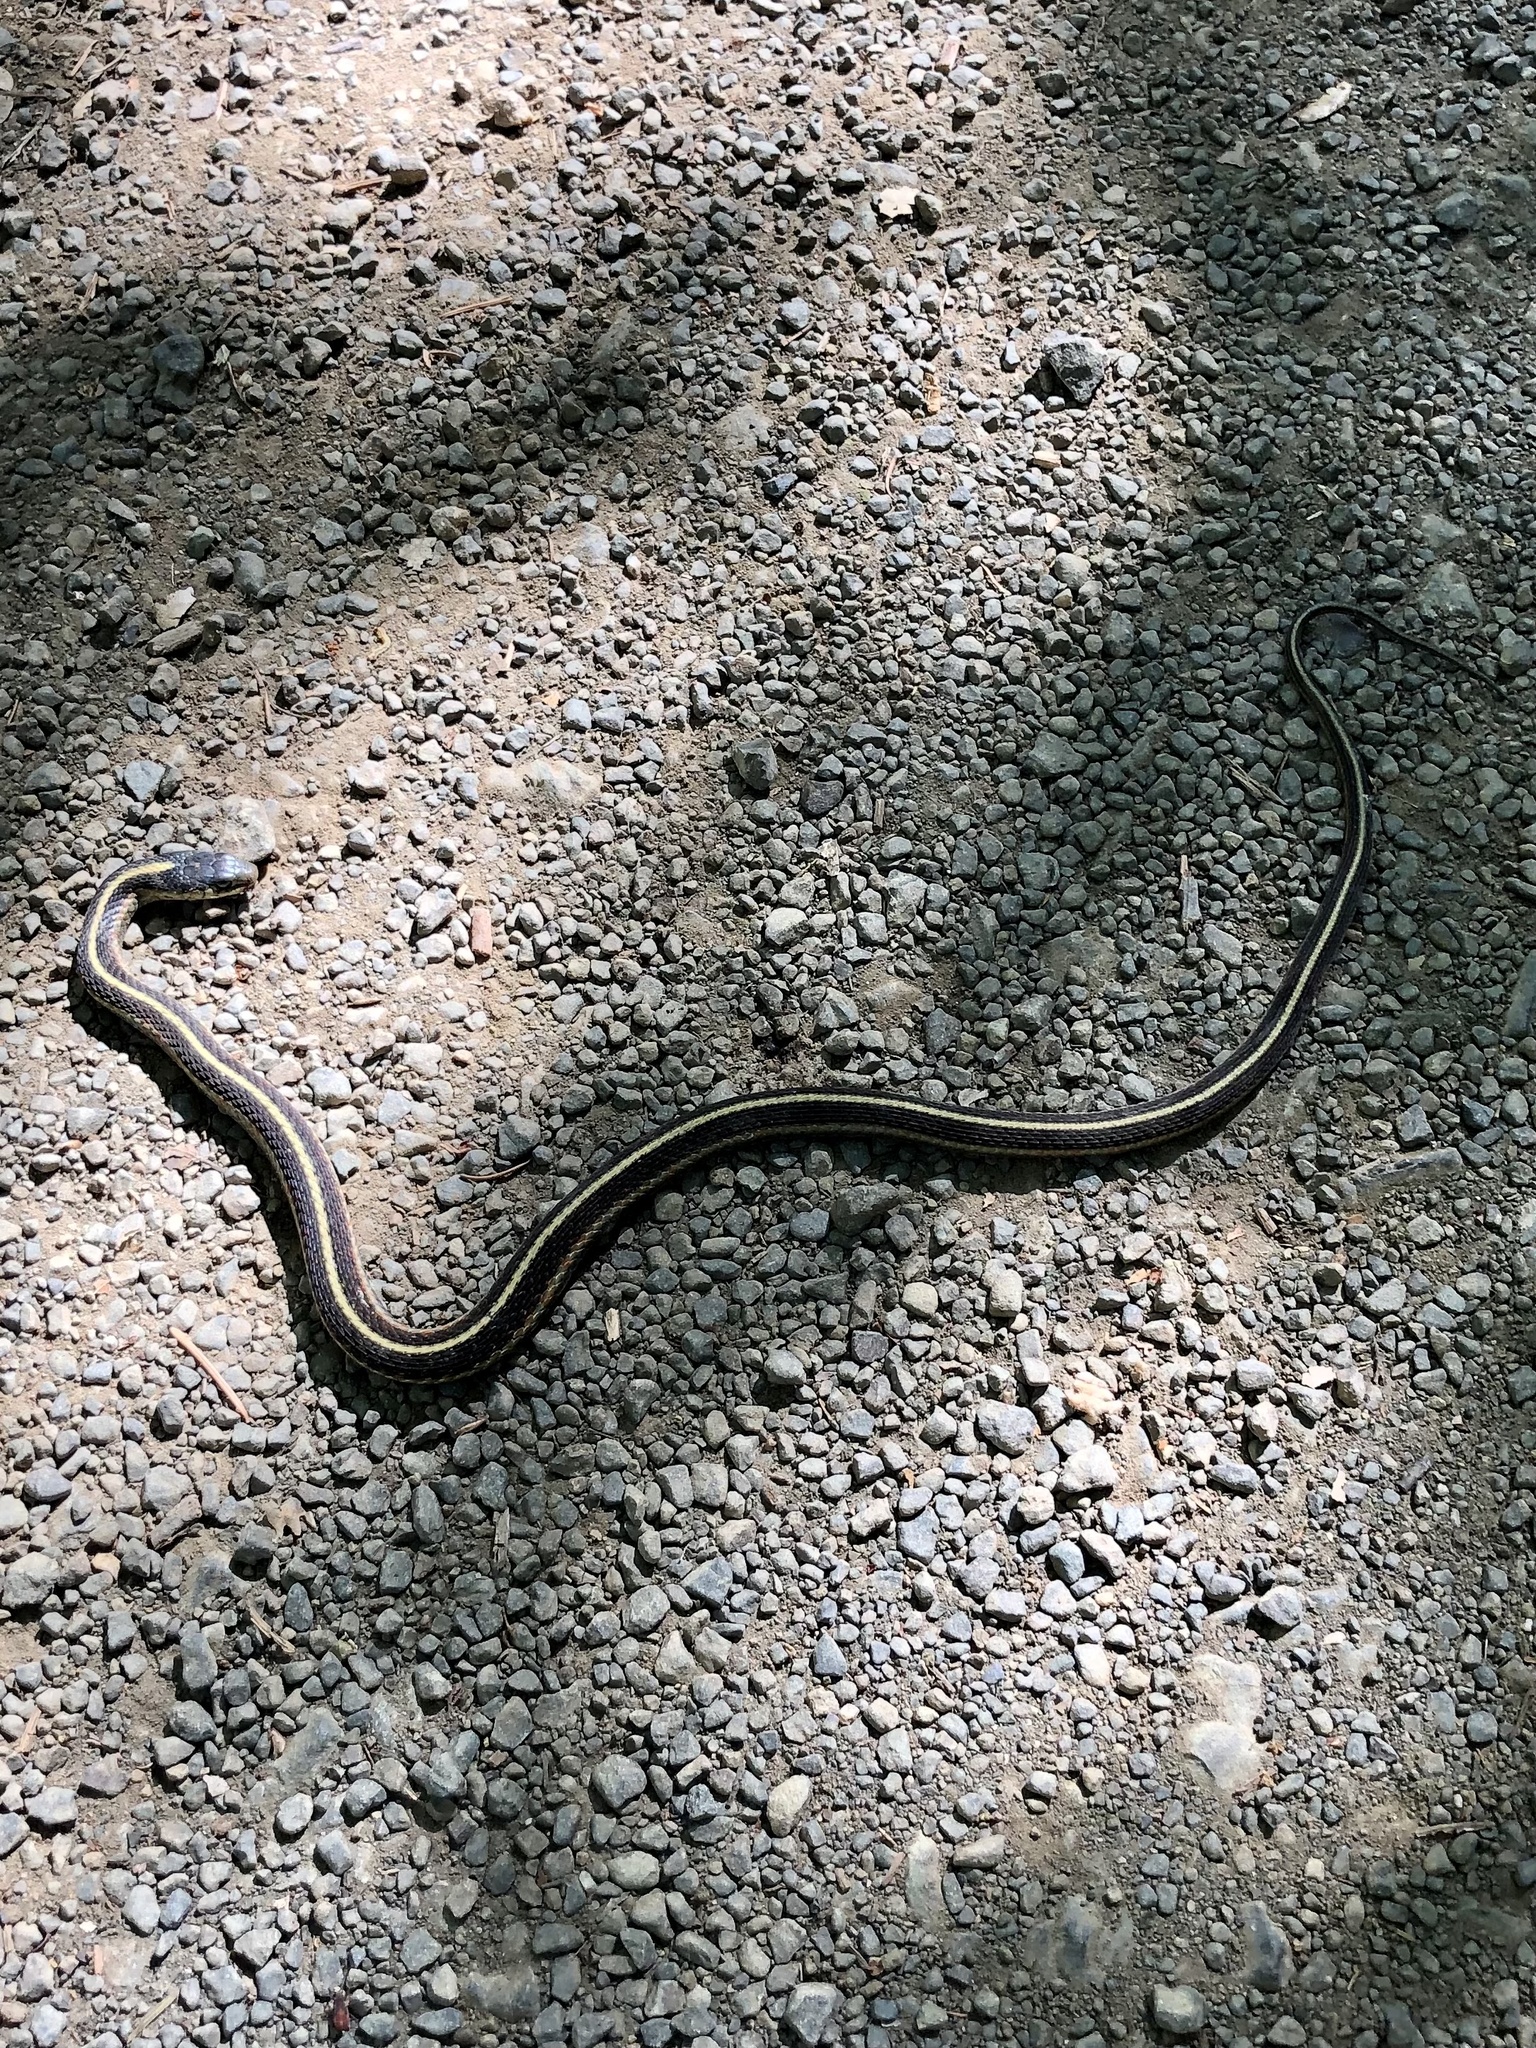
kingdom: Animalia
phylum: Chordata
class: Squamata
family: Colubridae
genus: Thamnophis
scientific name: Thamnophis elegans
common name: Western terrestrial garter snake
